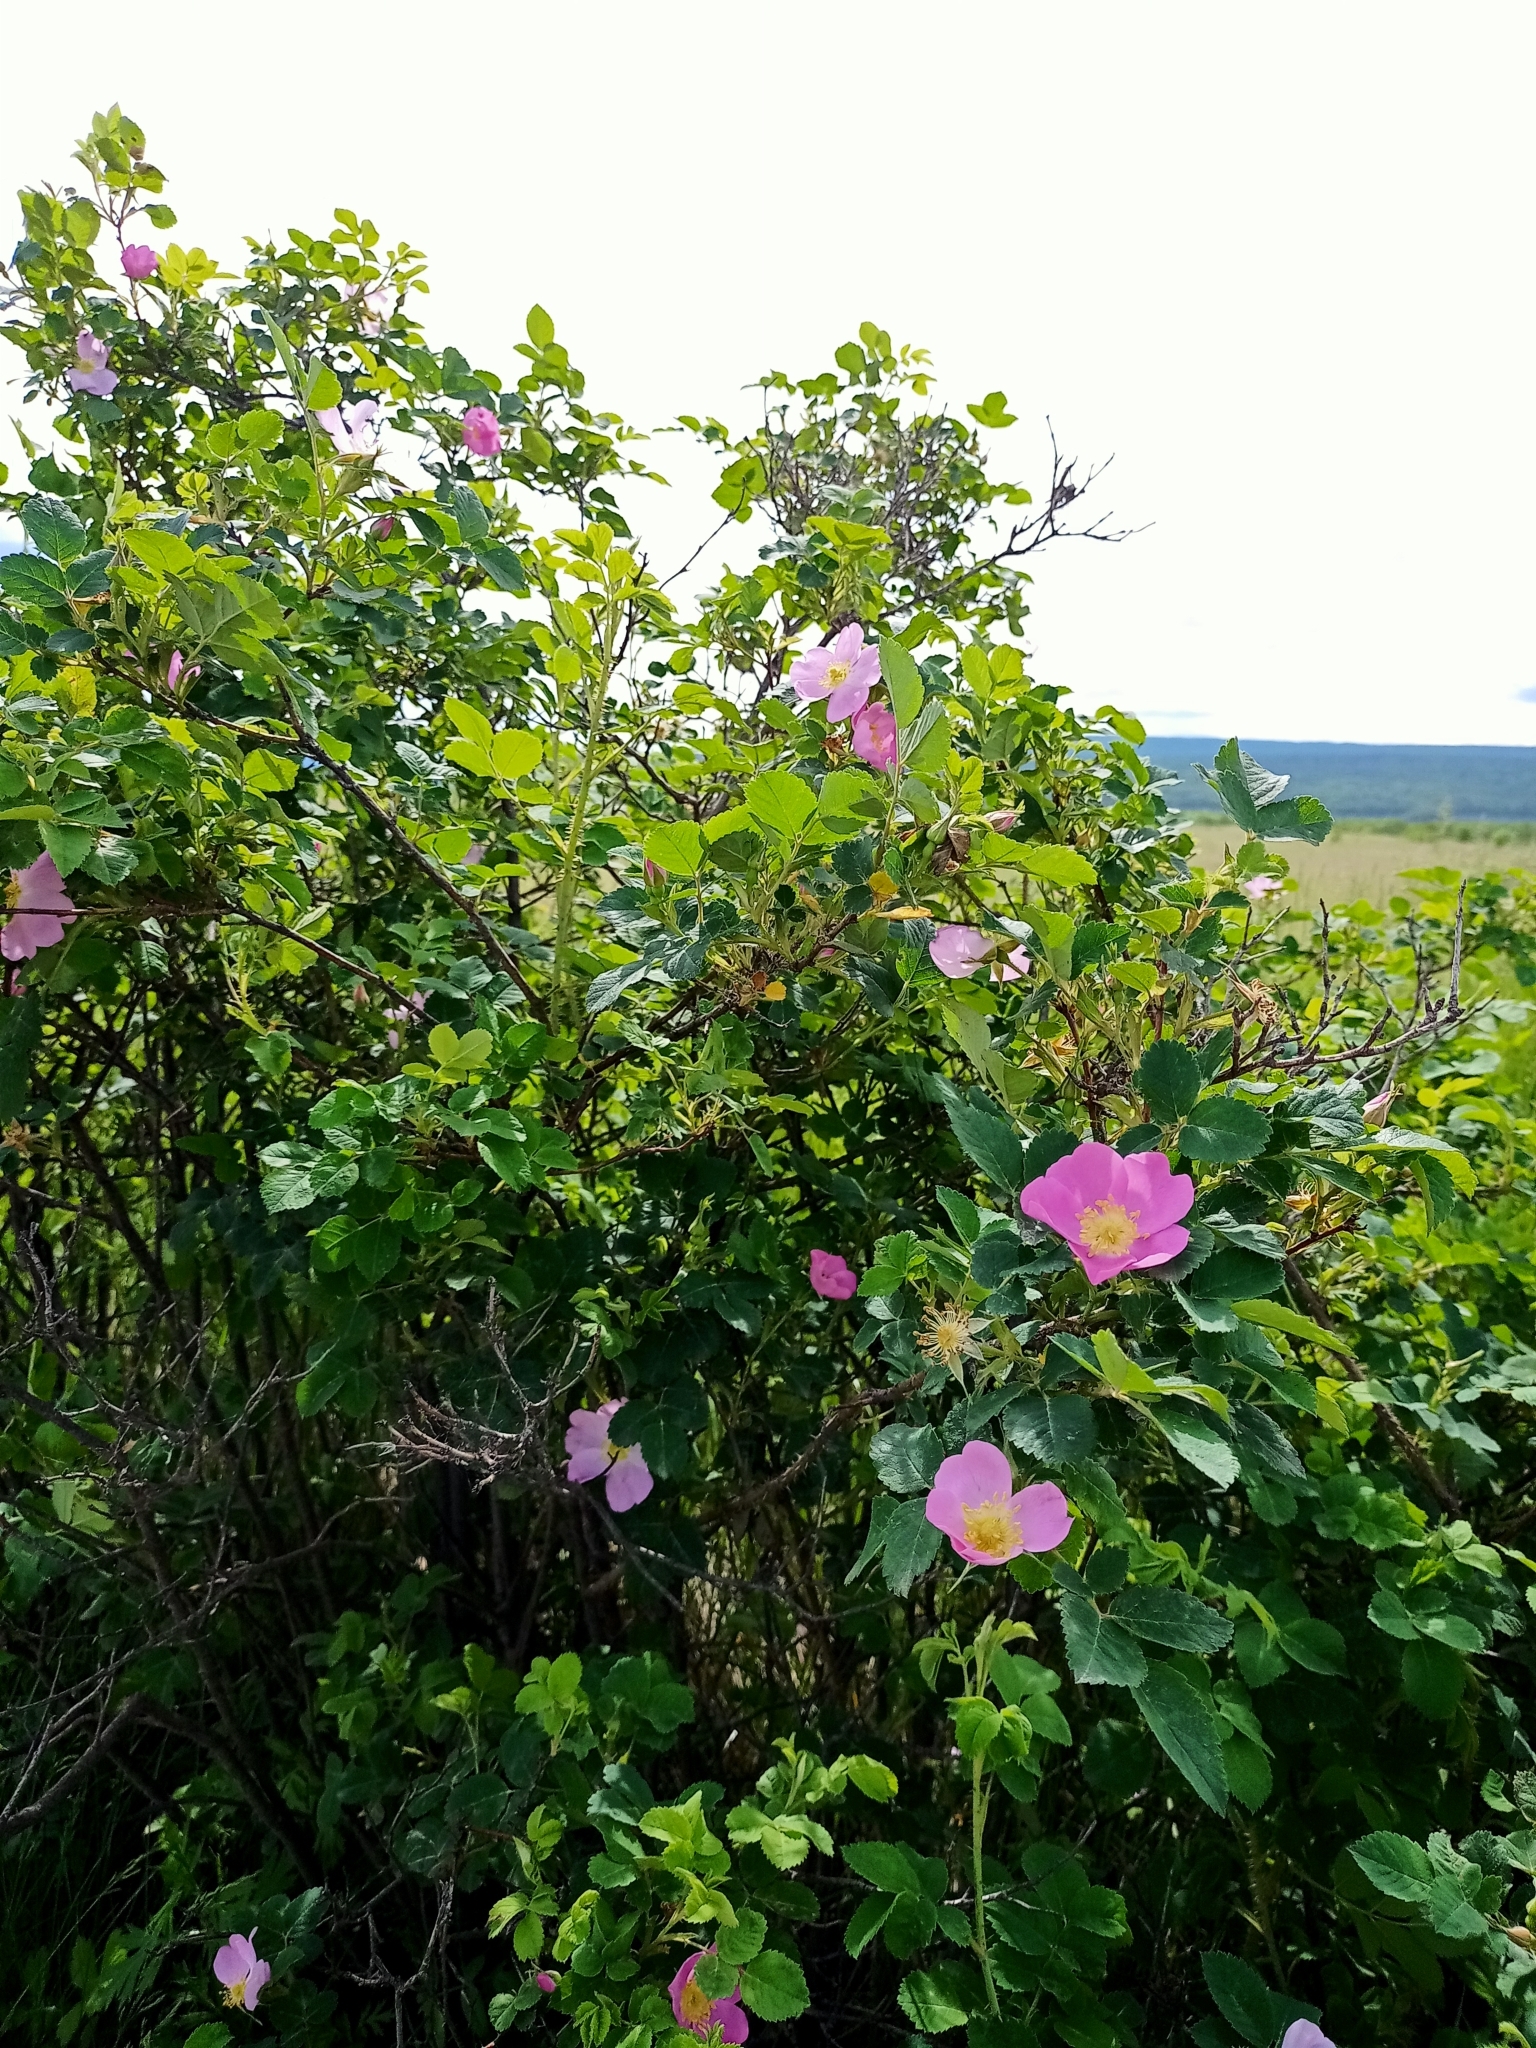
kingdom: Plantae
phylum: Tracheophyta
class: Magnoliopsida
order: Rosales
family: Rosaceae
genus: Rosa
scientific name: Rosa acicularis
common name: Prickly rose
